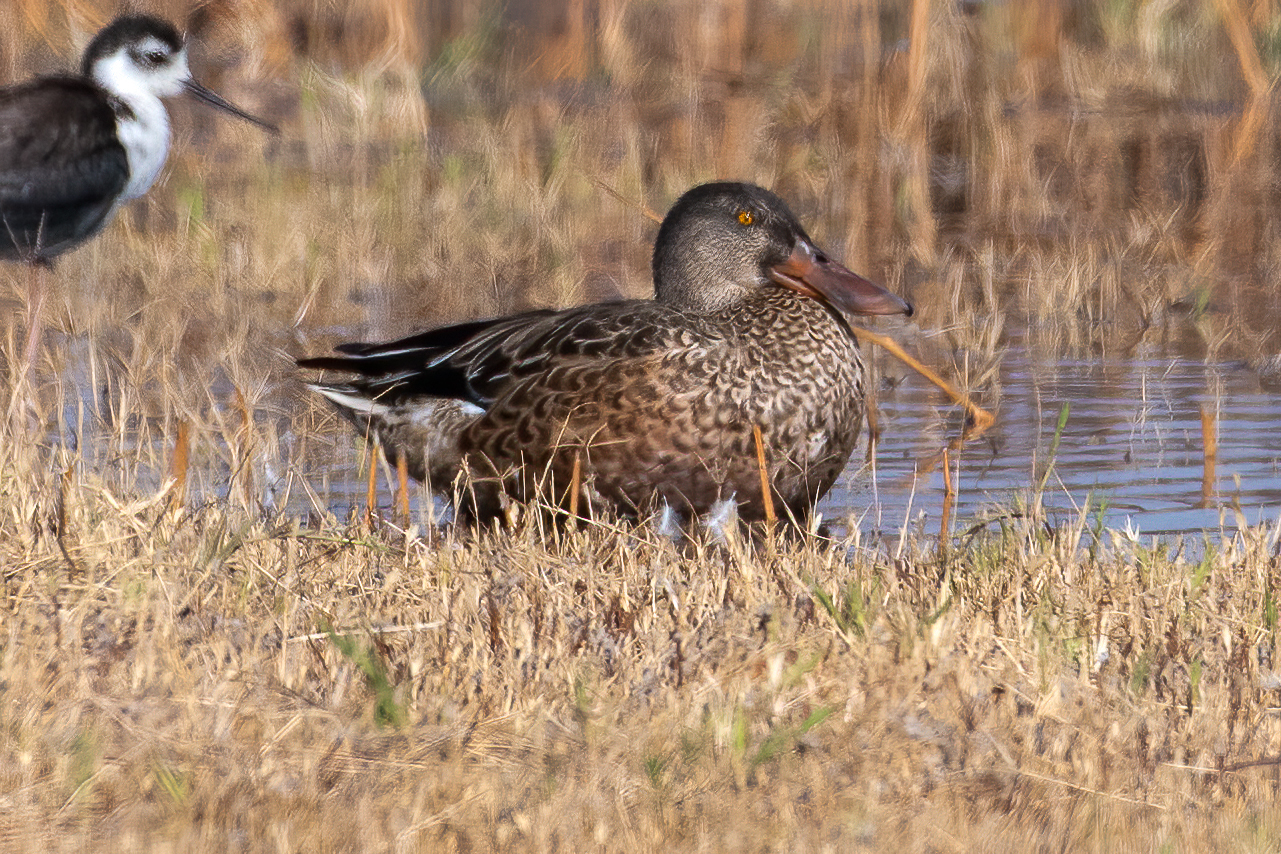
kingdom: Animalia
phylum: Chordata
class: Aves
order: Anseriformes
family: Anatidae
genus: Spatula
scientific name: Spatula clypeata
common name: Northern shoveler
